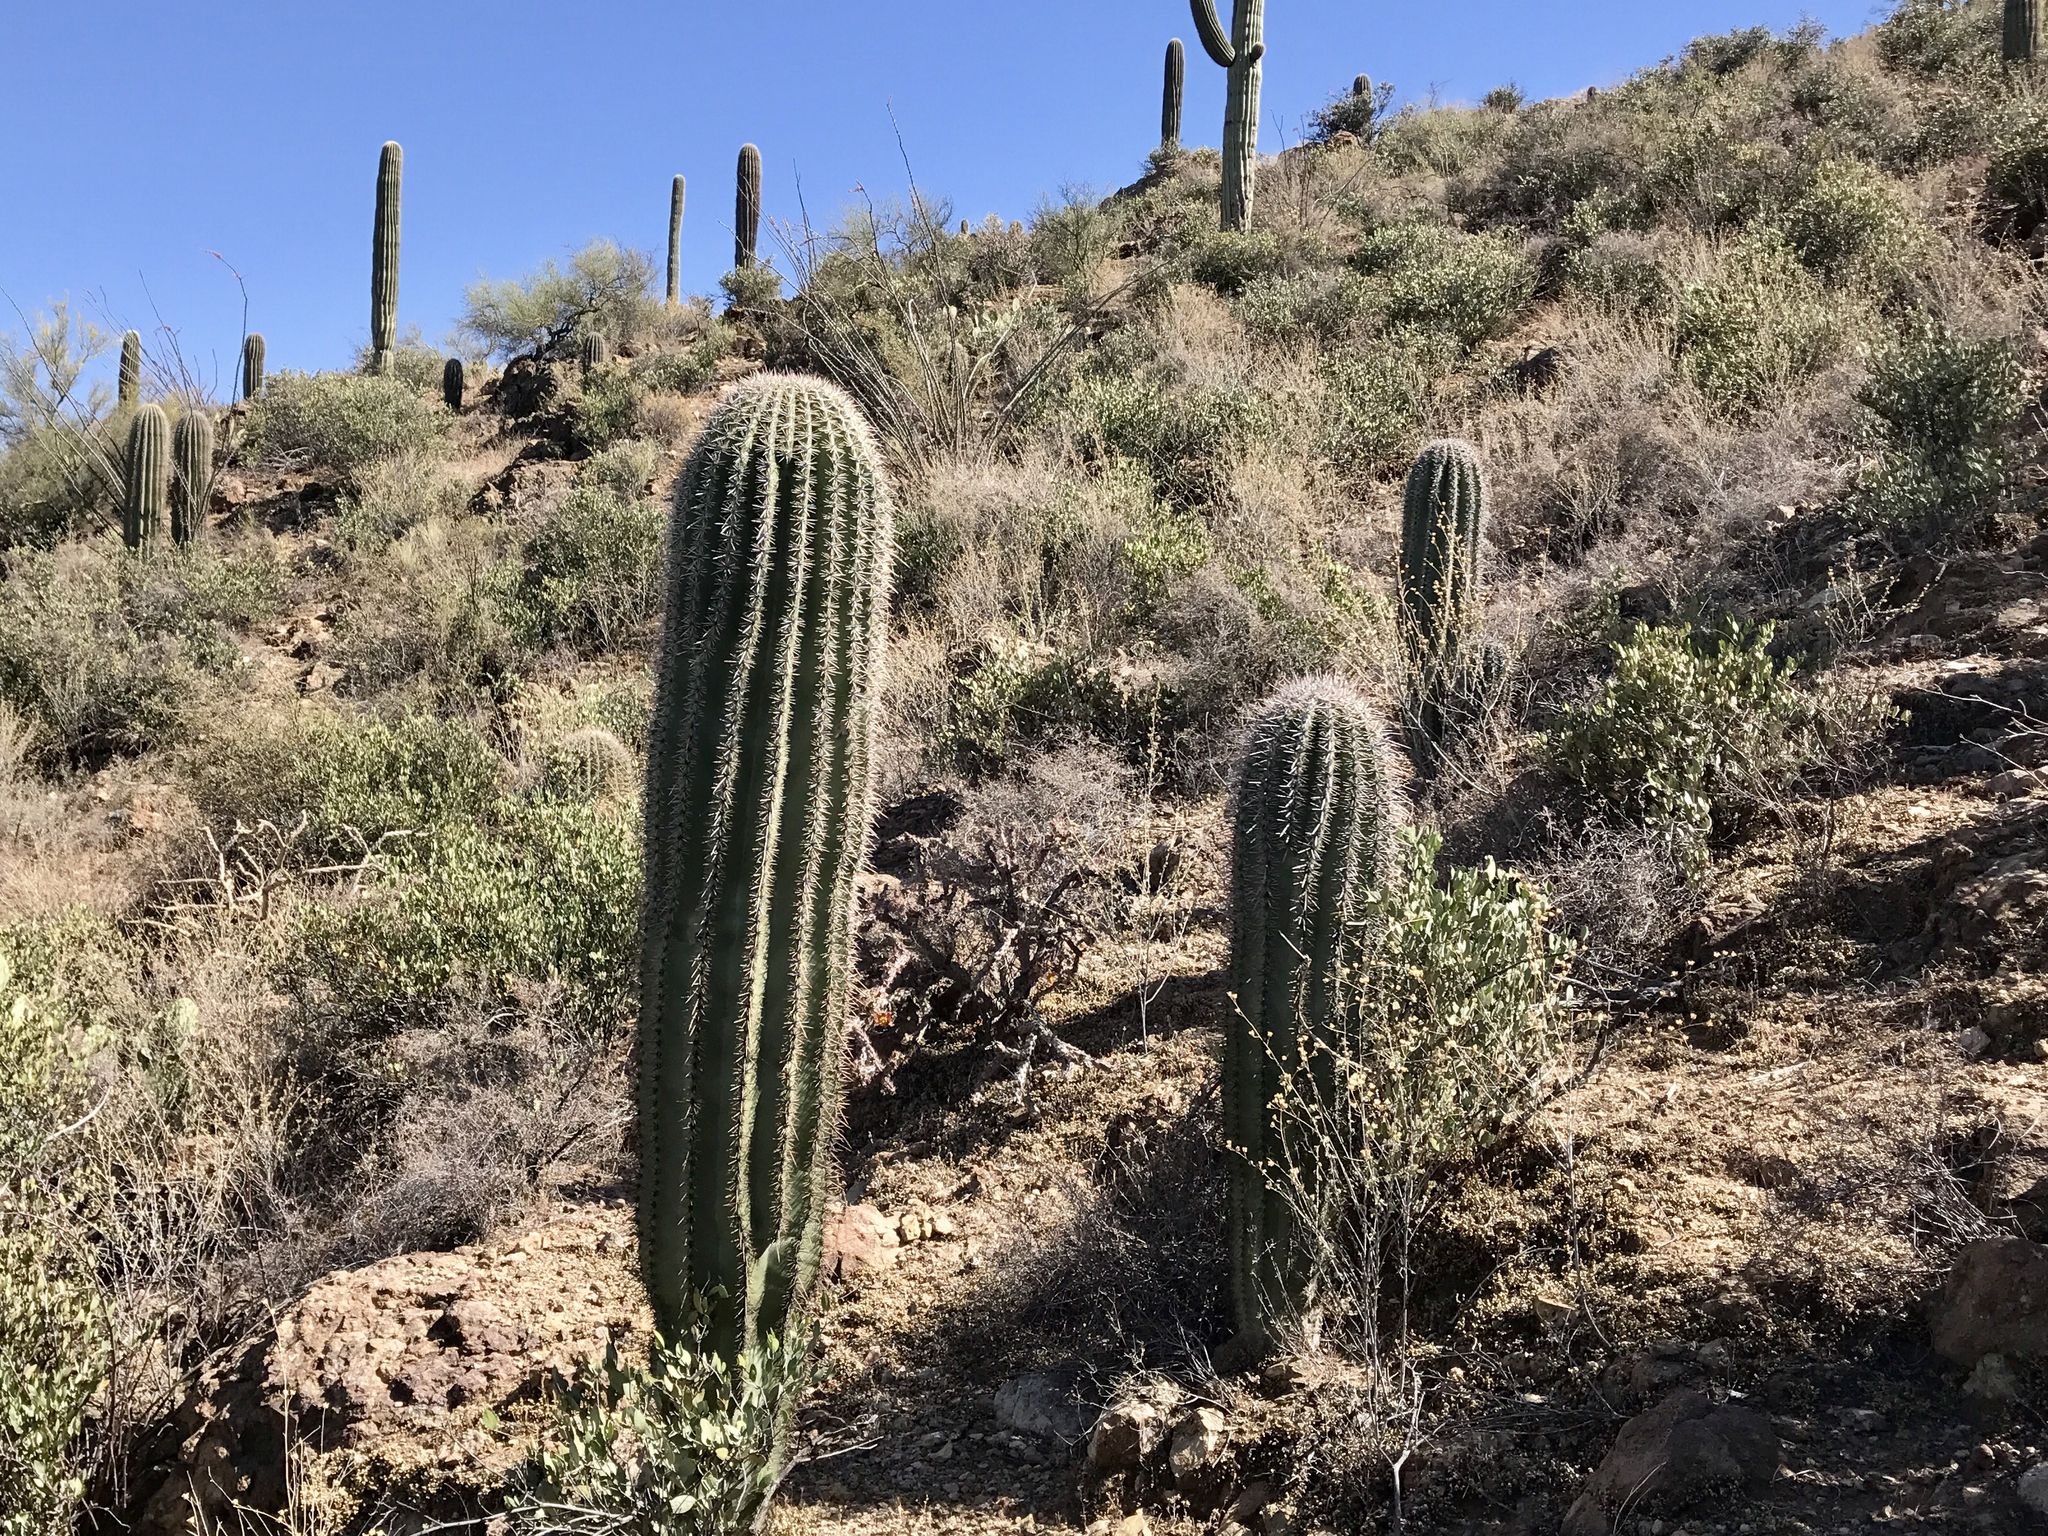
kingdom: Plantae
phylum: Tracheophyta
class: Magnoliopsida
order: Caryophyllales
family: Cactaceae
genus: Carnegiea
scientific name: Carnegiea gigantea
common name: Saguaro
